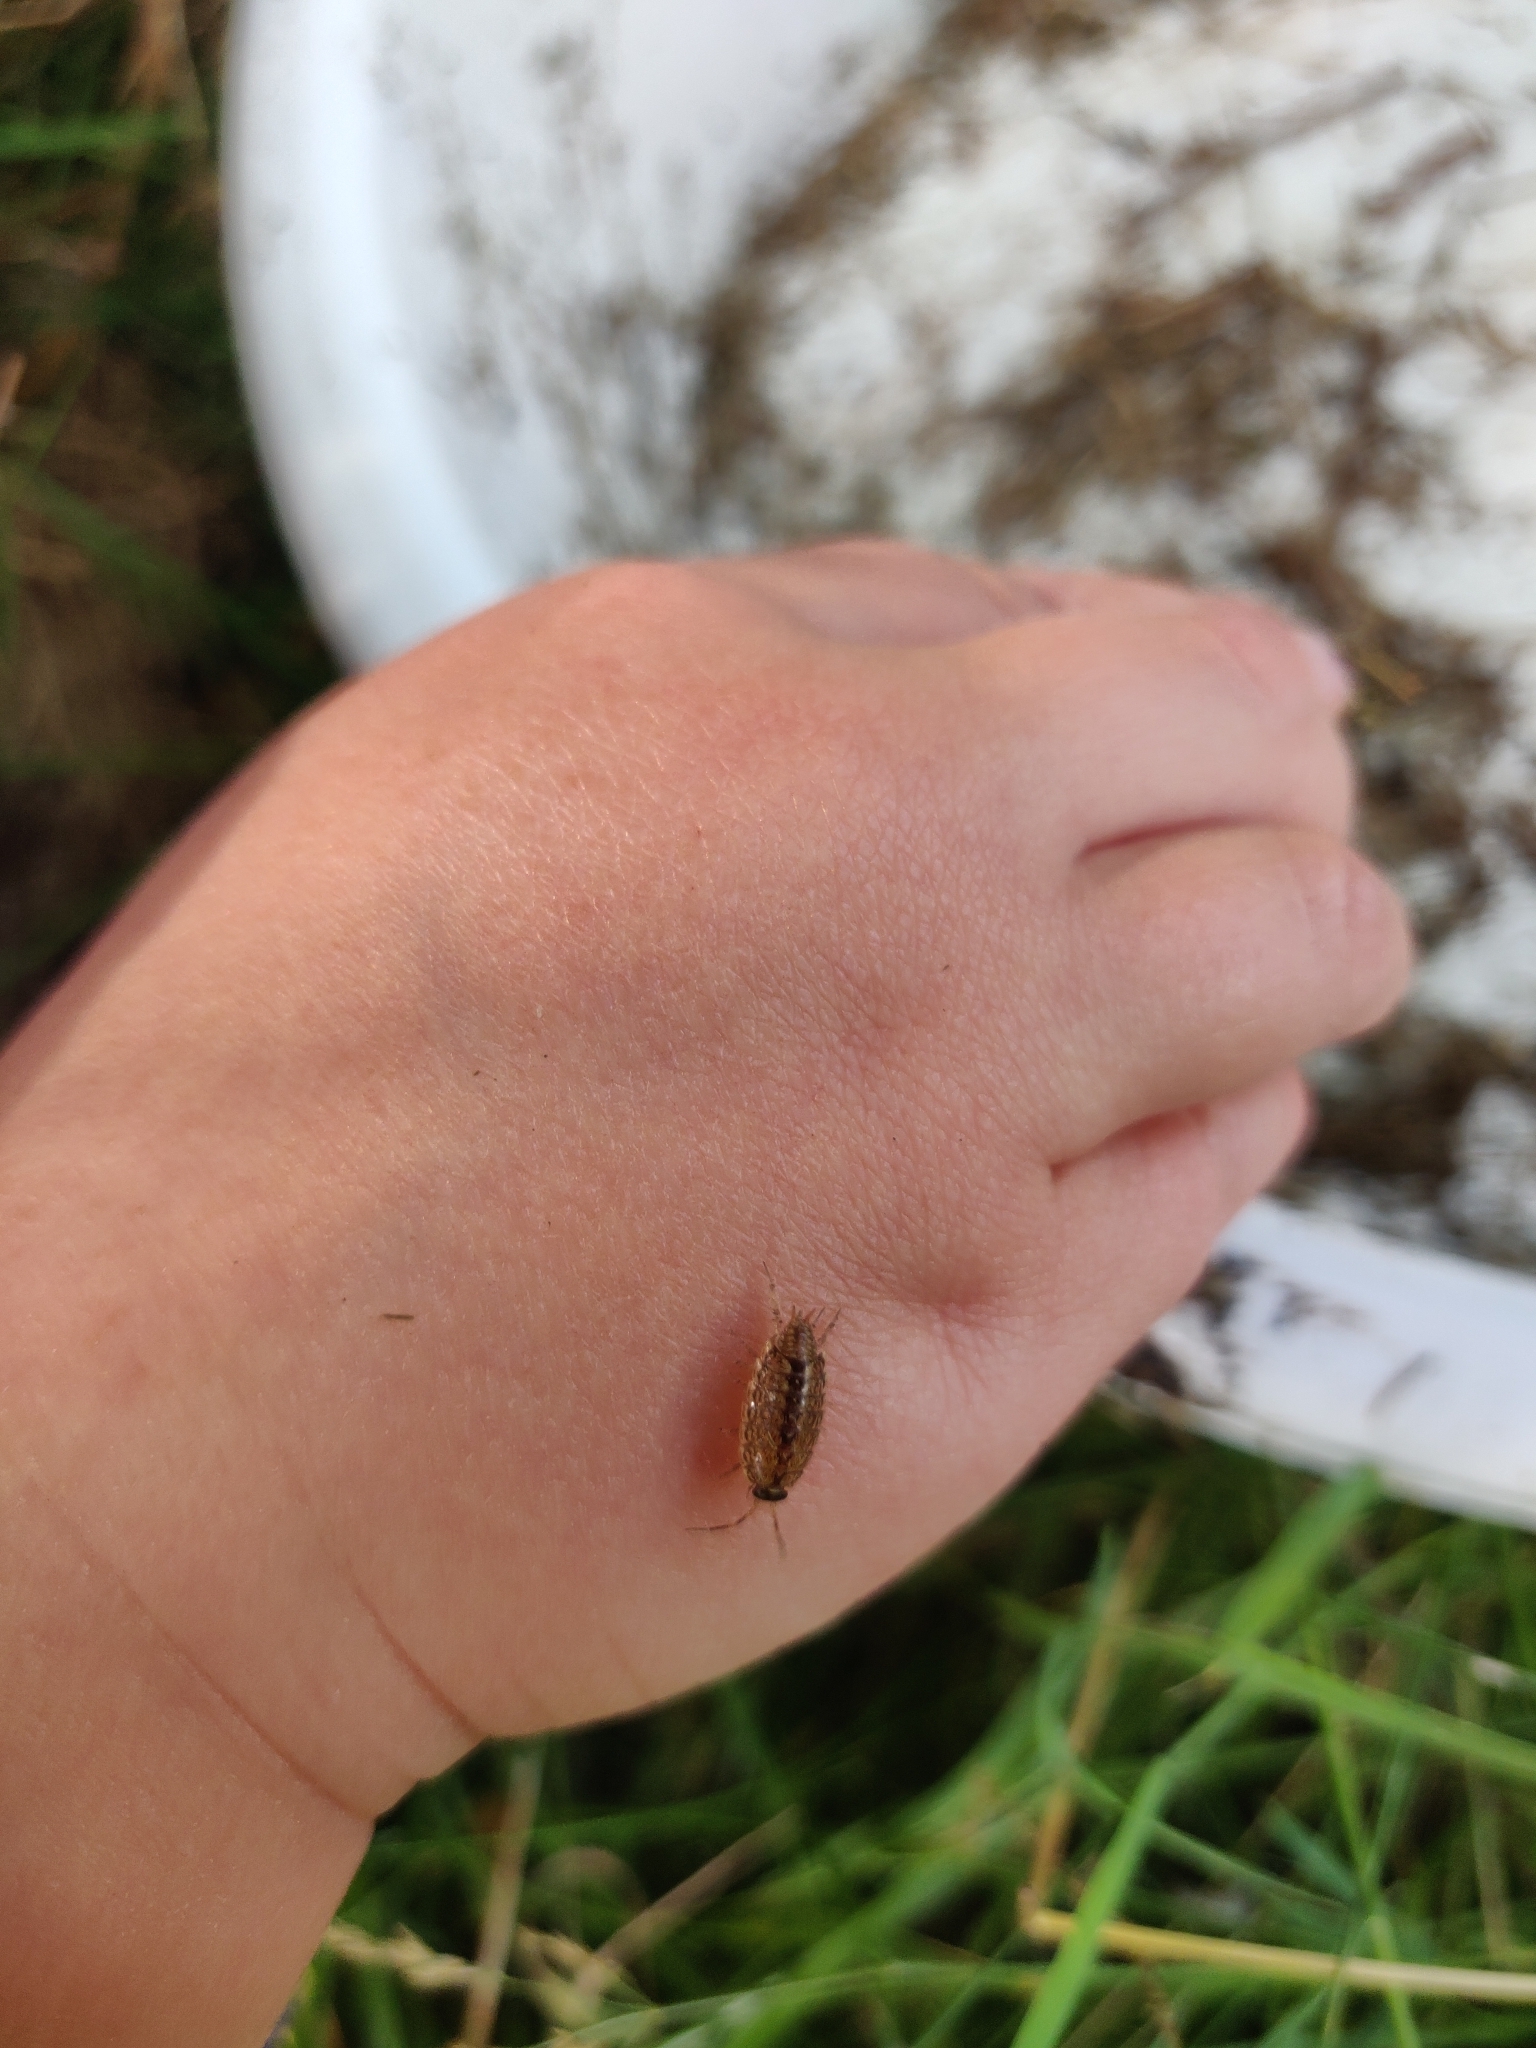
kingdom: Animalia
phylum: Arthropoda
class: Malacostraca
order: Isopoda
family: Philosciidae
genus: Philoscia
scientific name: Philoscia muscorum
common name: Common striped woodlouse
